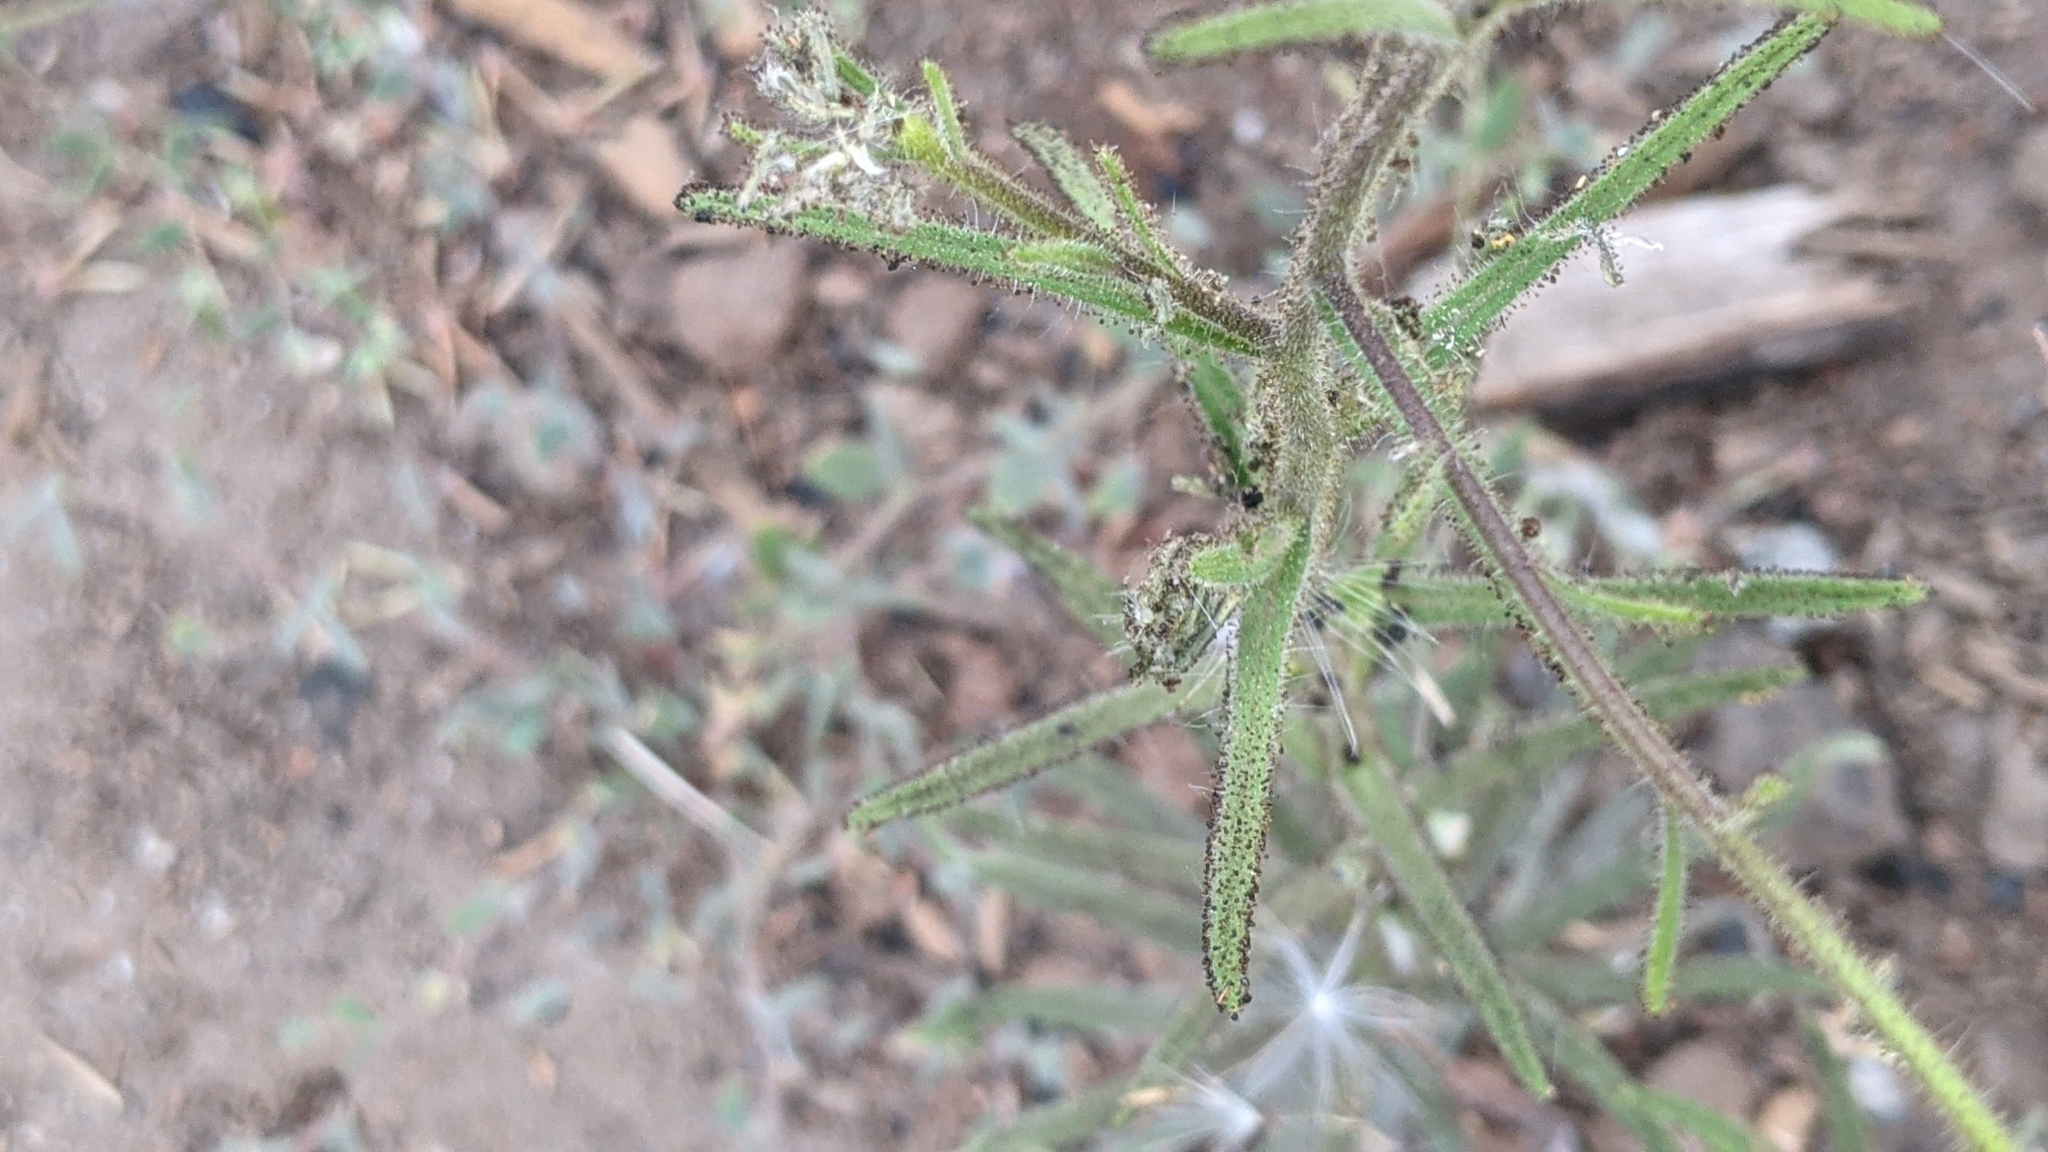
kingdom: Plantae
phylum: Tracheophyta
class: Magnoliopsida
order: Asterales
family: Asteraceae
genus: Madia
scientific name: Madia elegans
